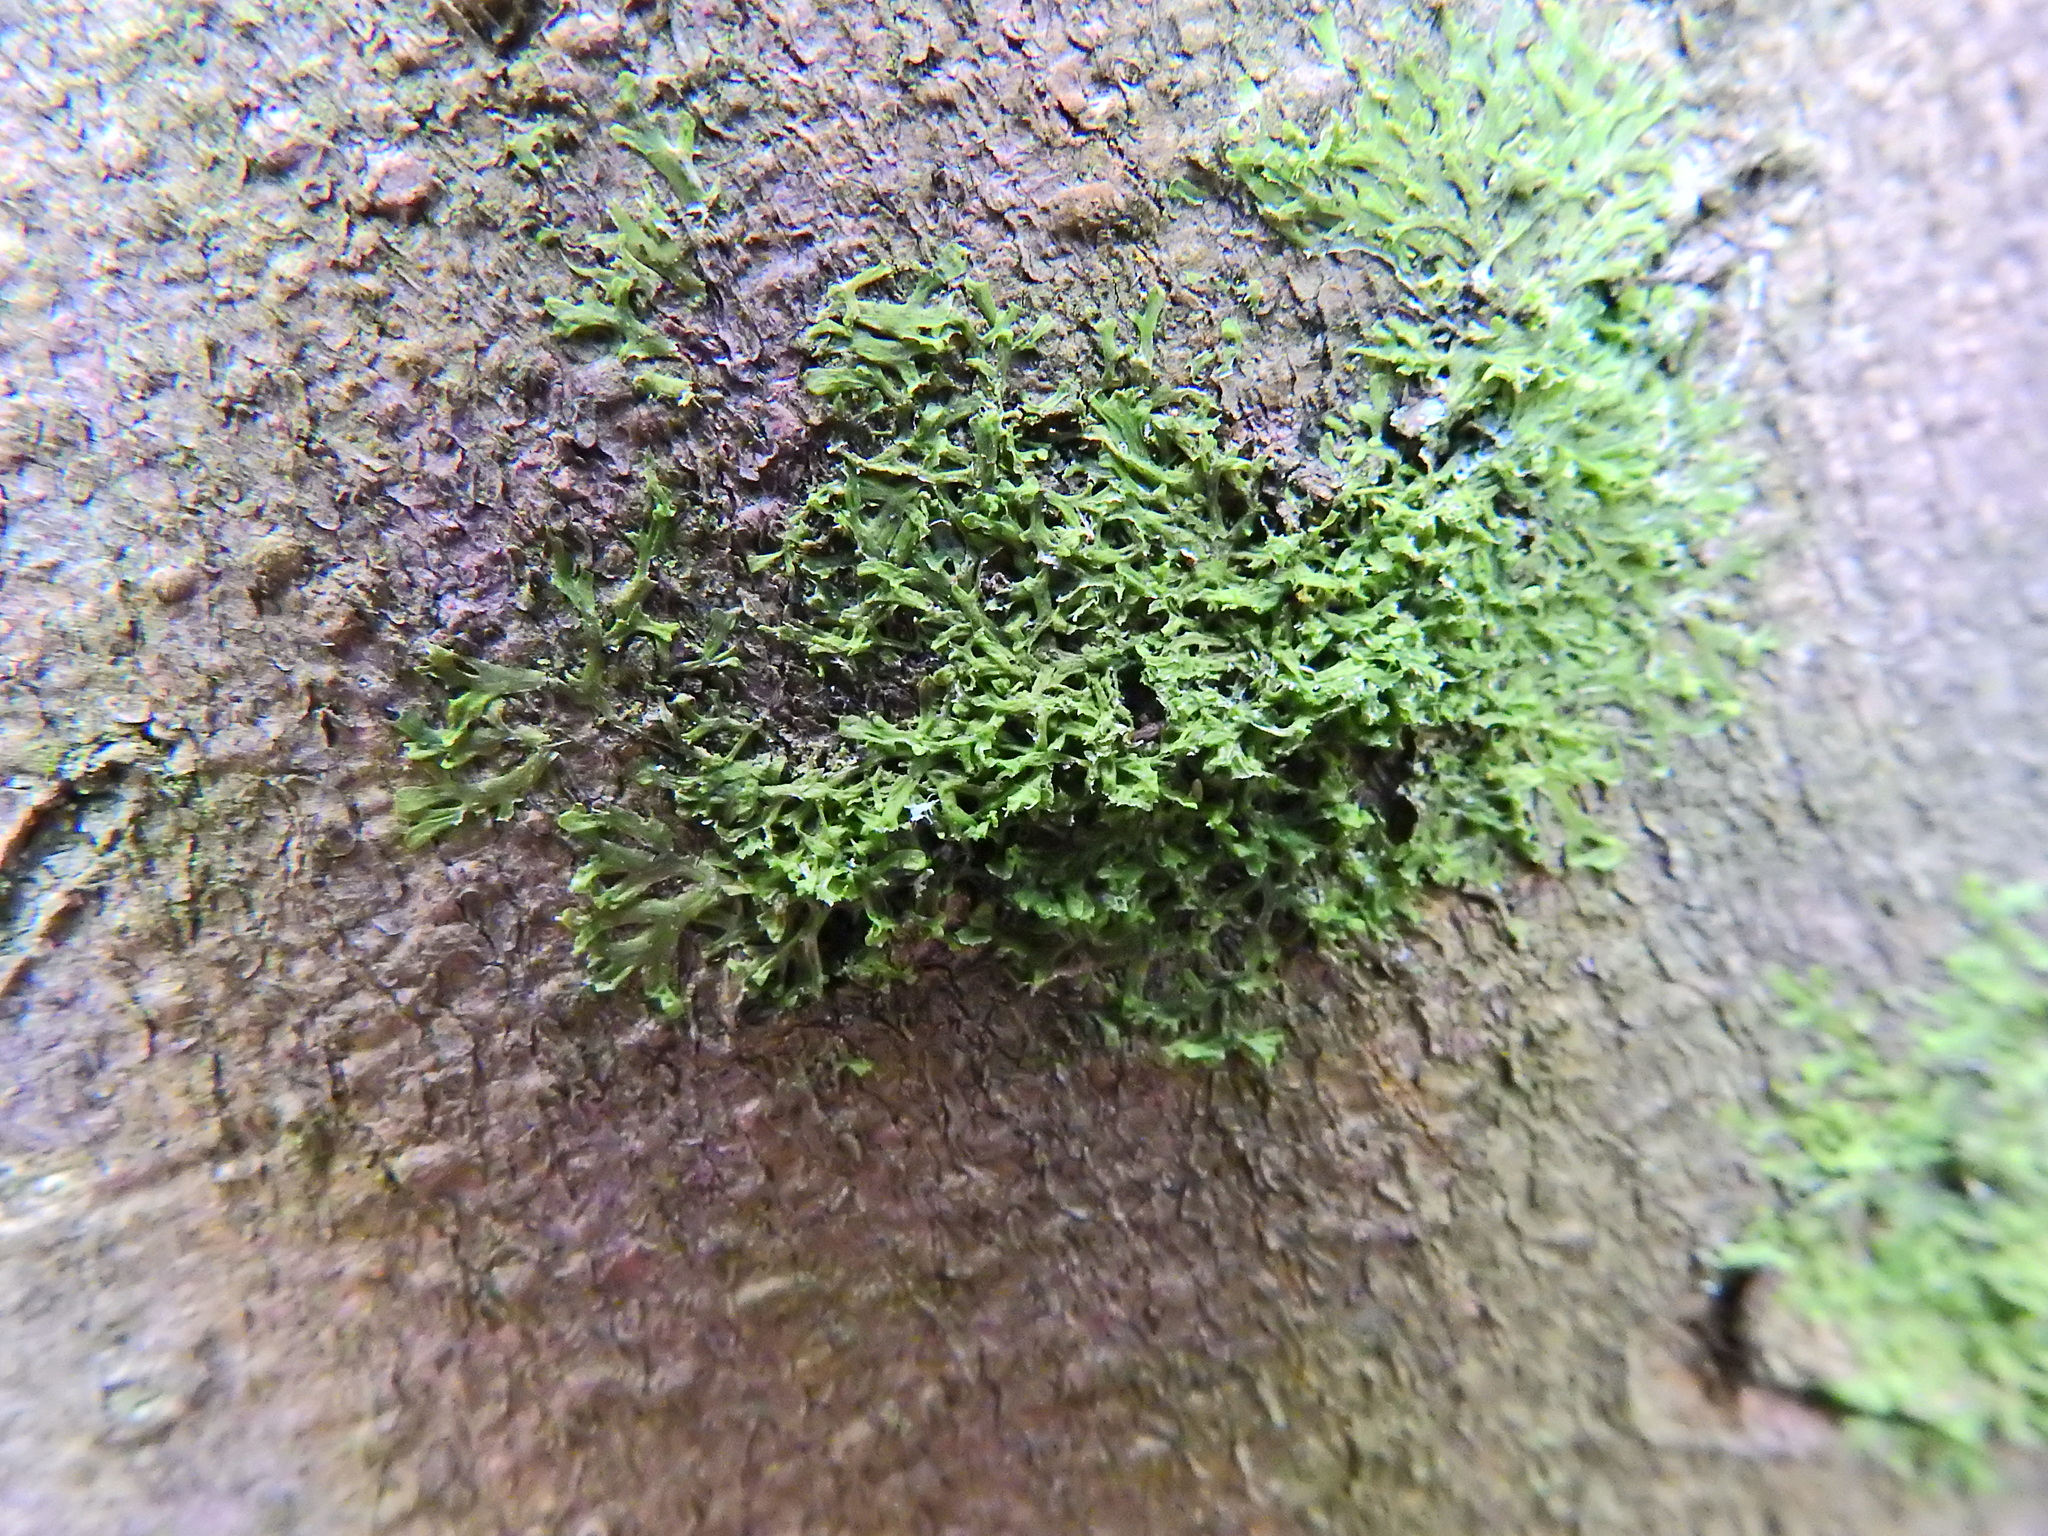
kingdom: Plantae
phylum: Marchantiophyta
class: Jungermanniopsida
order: Metzgeriales
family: Metzgeriaceae
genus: Metzgeria
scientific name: Metzgeria furcata
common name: Forked veilwort
